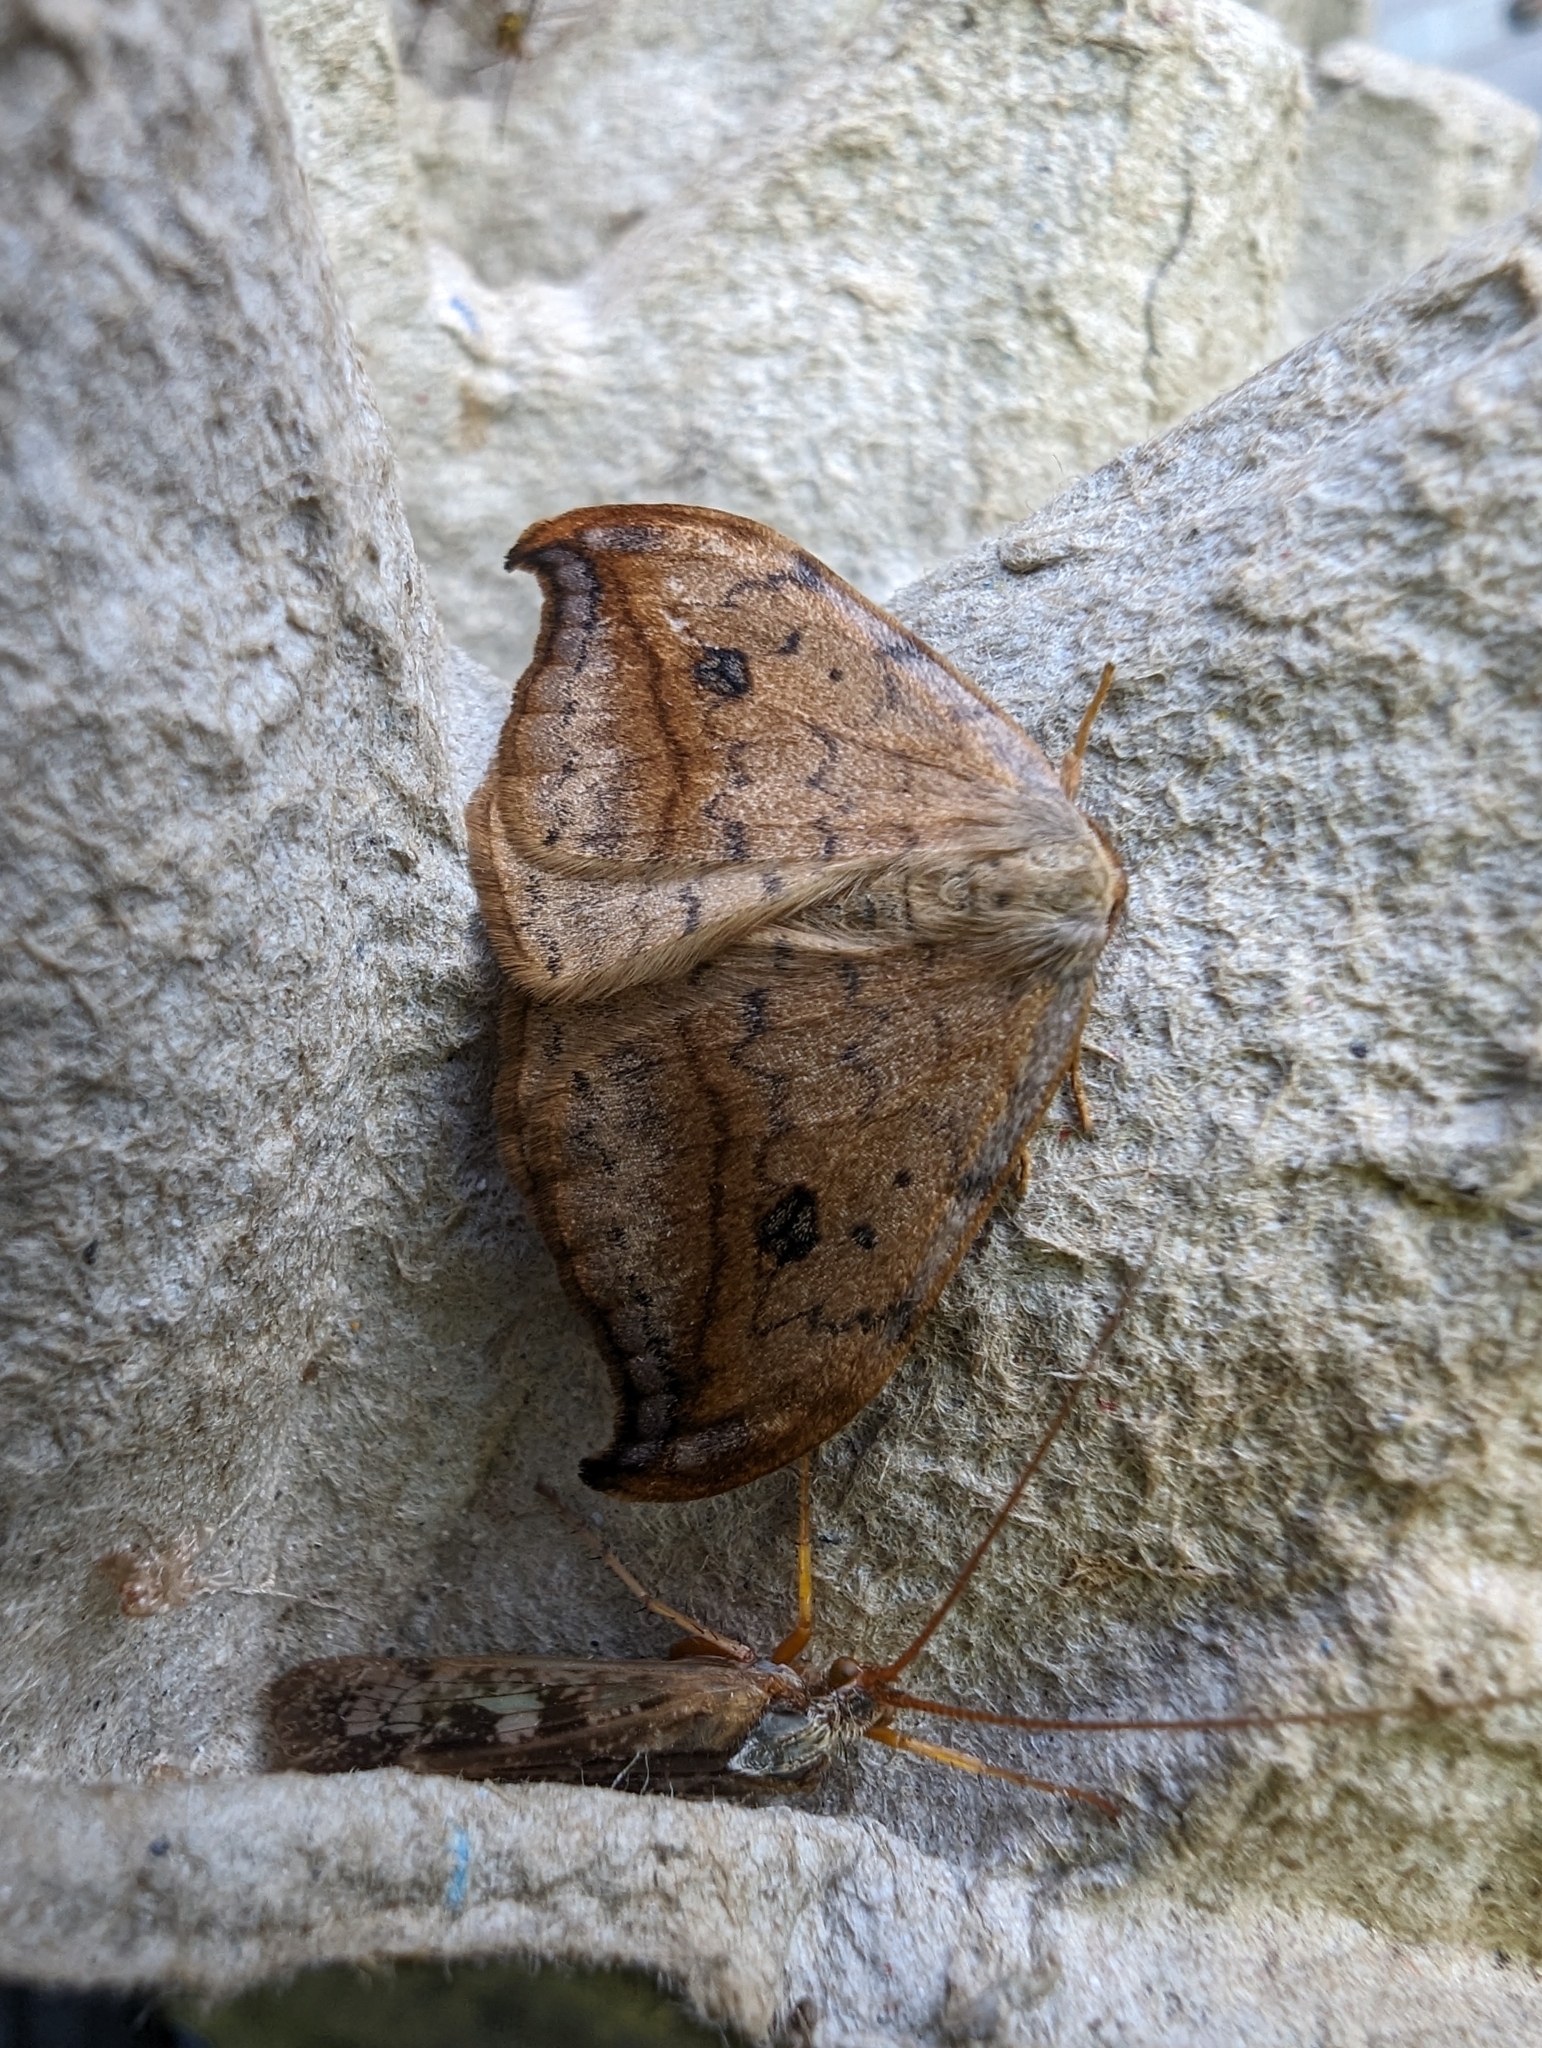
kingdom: Animalia
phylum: Arthropoda
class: Insecta
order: Lepidoptera
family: Drepanidae
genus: Drepana
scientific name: Drepana falcataria
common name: Pebble hook-tip
